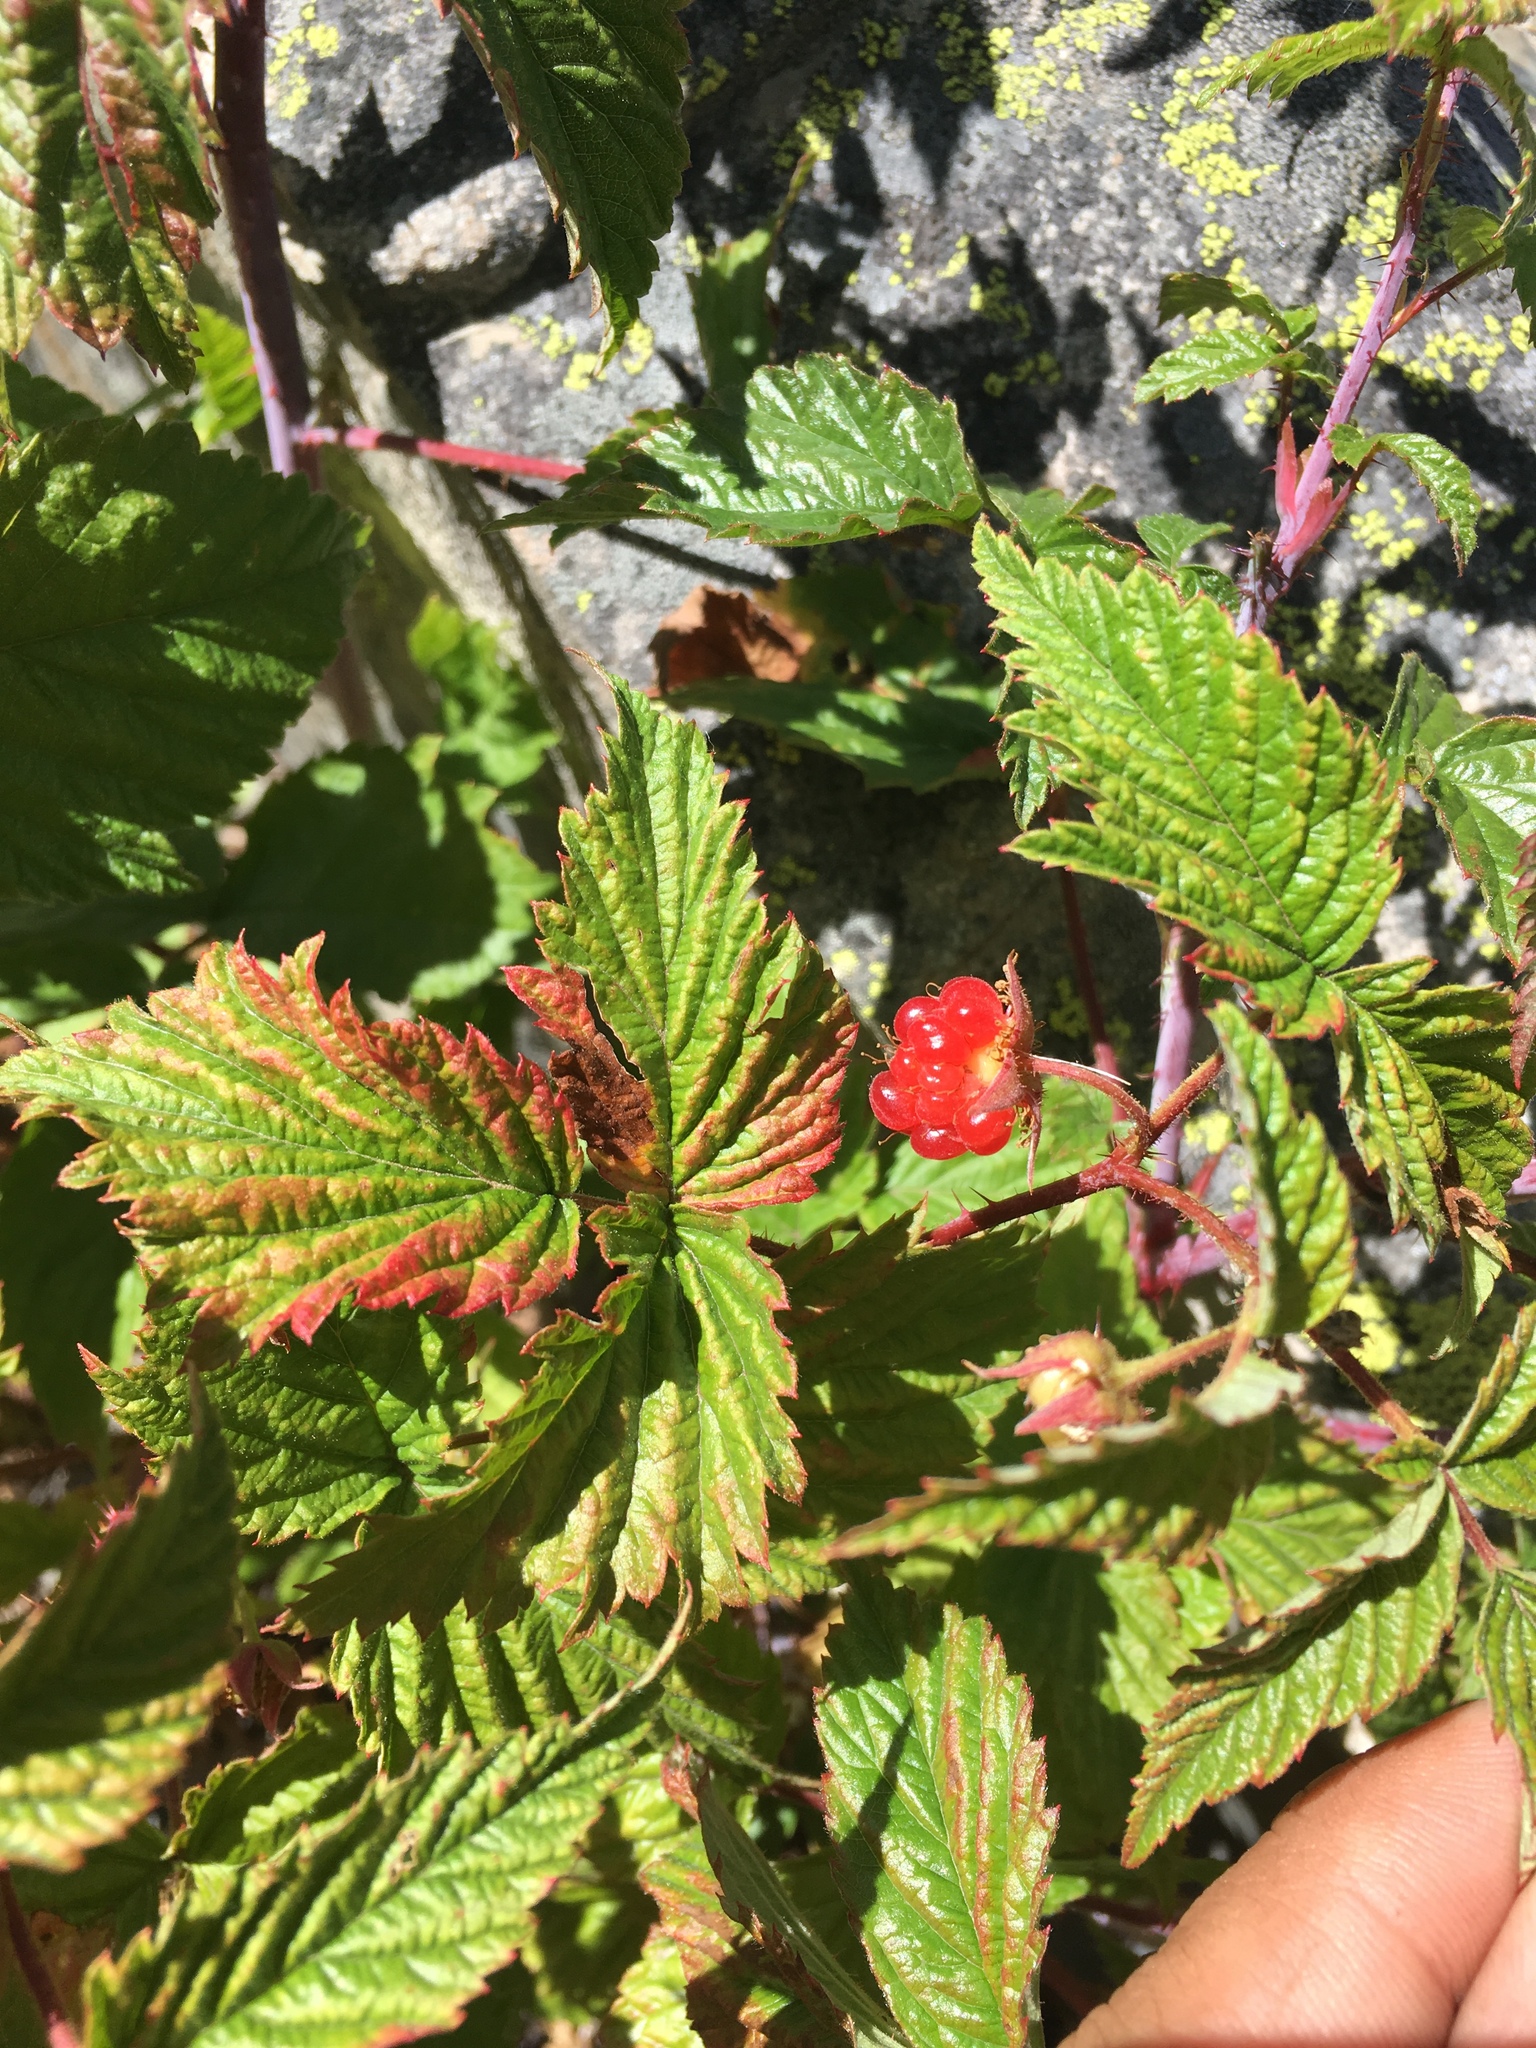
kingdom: Plantae
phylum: Tracheophyta
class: Magnoliopsida
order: Rosales
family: Rosaceae
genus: Rubus
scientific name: Rubus idaeus
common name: Raspberry
